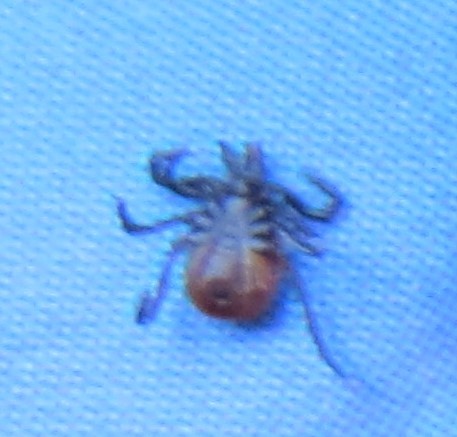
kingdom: Animalia
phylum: Arthropoda
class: Arachnida
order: Ixodida
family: Ixodidae
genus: Ixodes
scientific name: Ixodes scapularis
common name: Black legged tick
